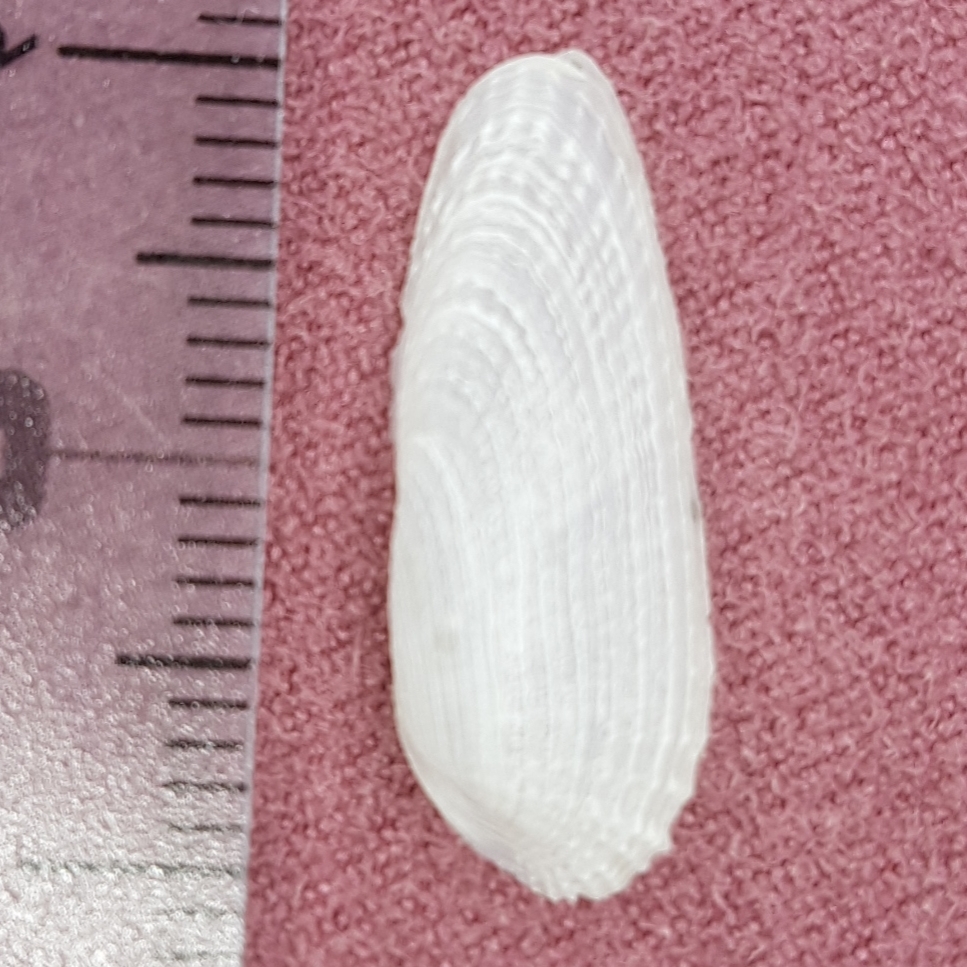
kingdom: Animalia
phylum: Mollusca
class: Bivalvia
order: Myida
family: Pholadidae
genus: Barnea
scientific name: Barnea candida
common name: White piddock
